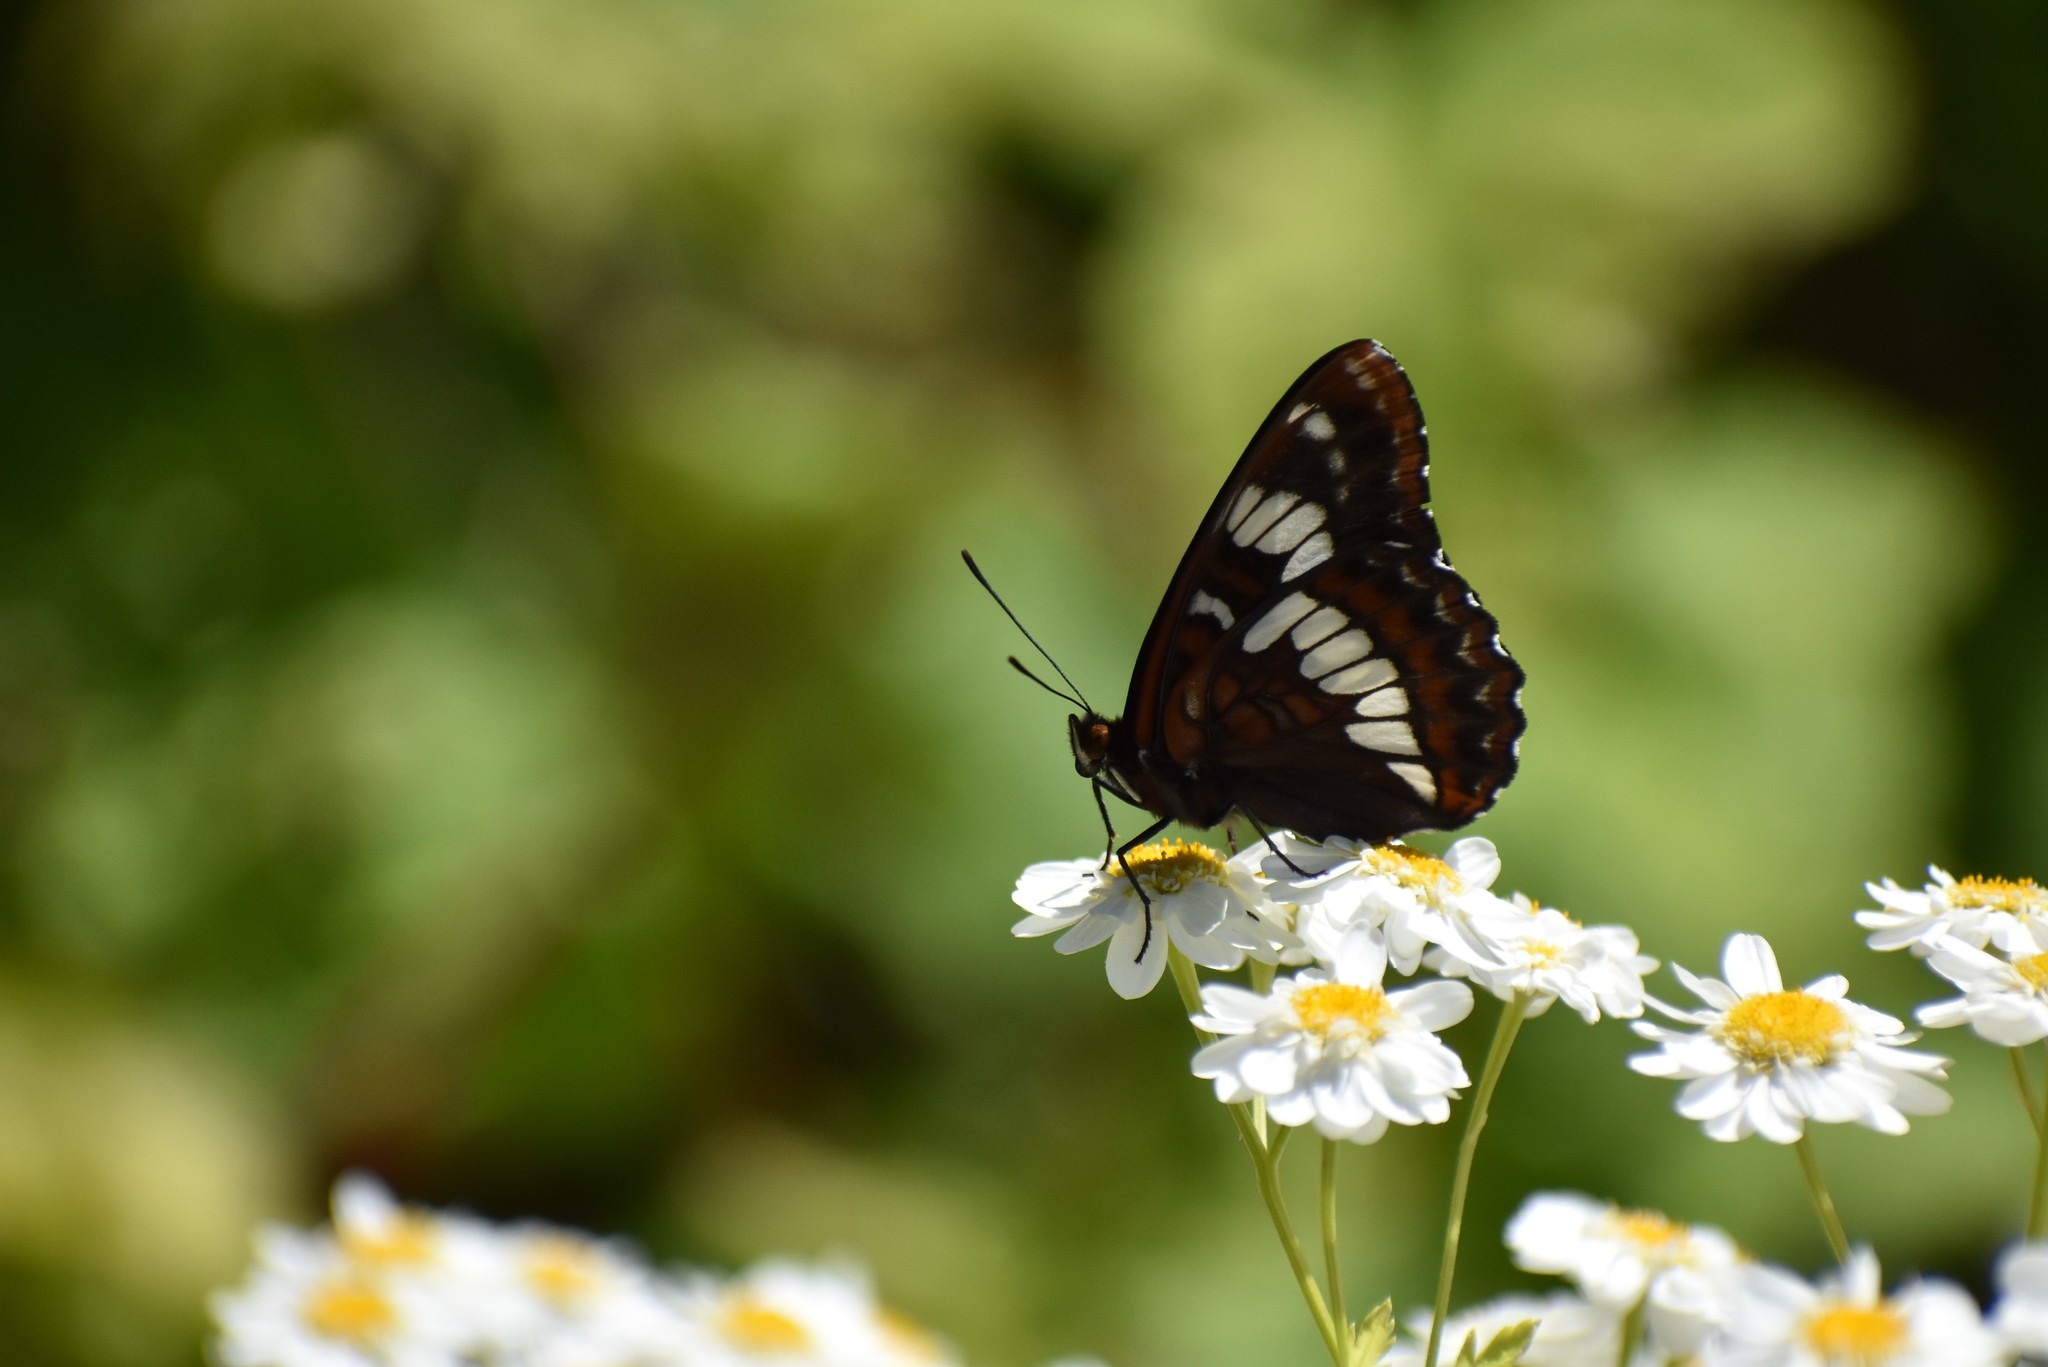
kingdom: Animalia
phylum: Arthropoda
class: Insecta
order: Lepidoptera
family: Nymphalidae
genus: Limenitis
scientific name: Limenitis lorquini
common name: Lorquin's admiral
